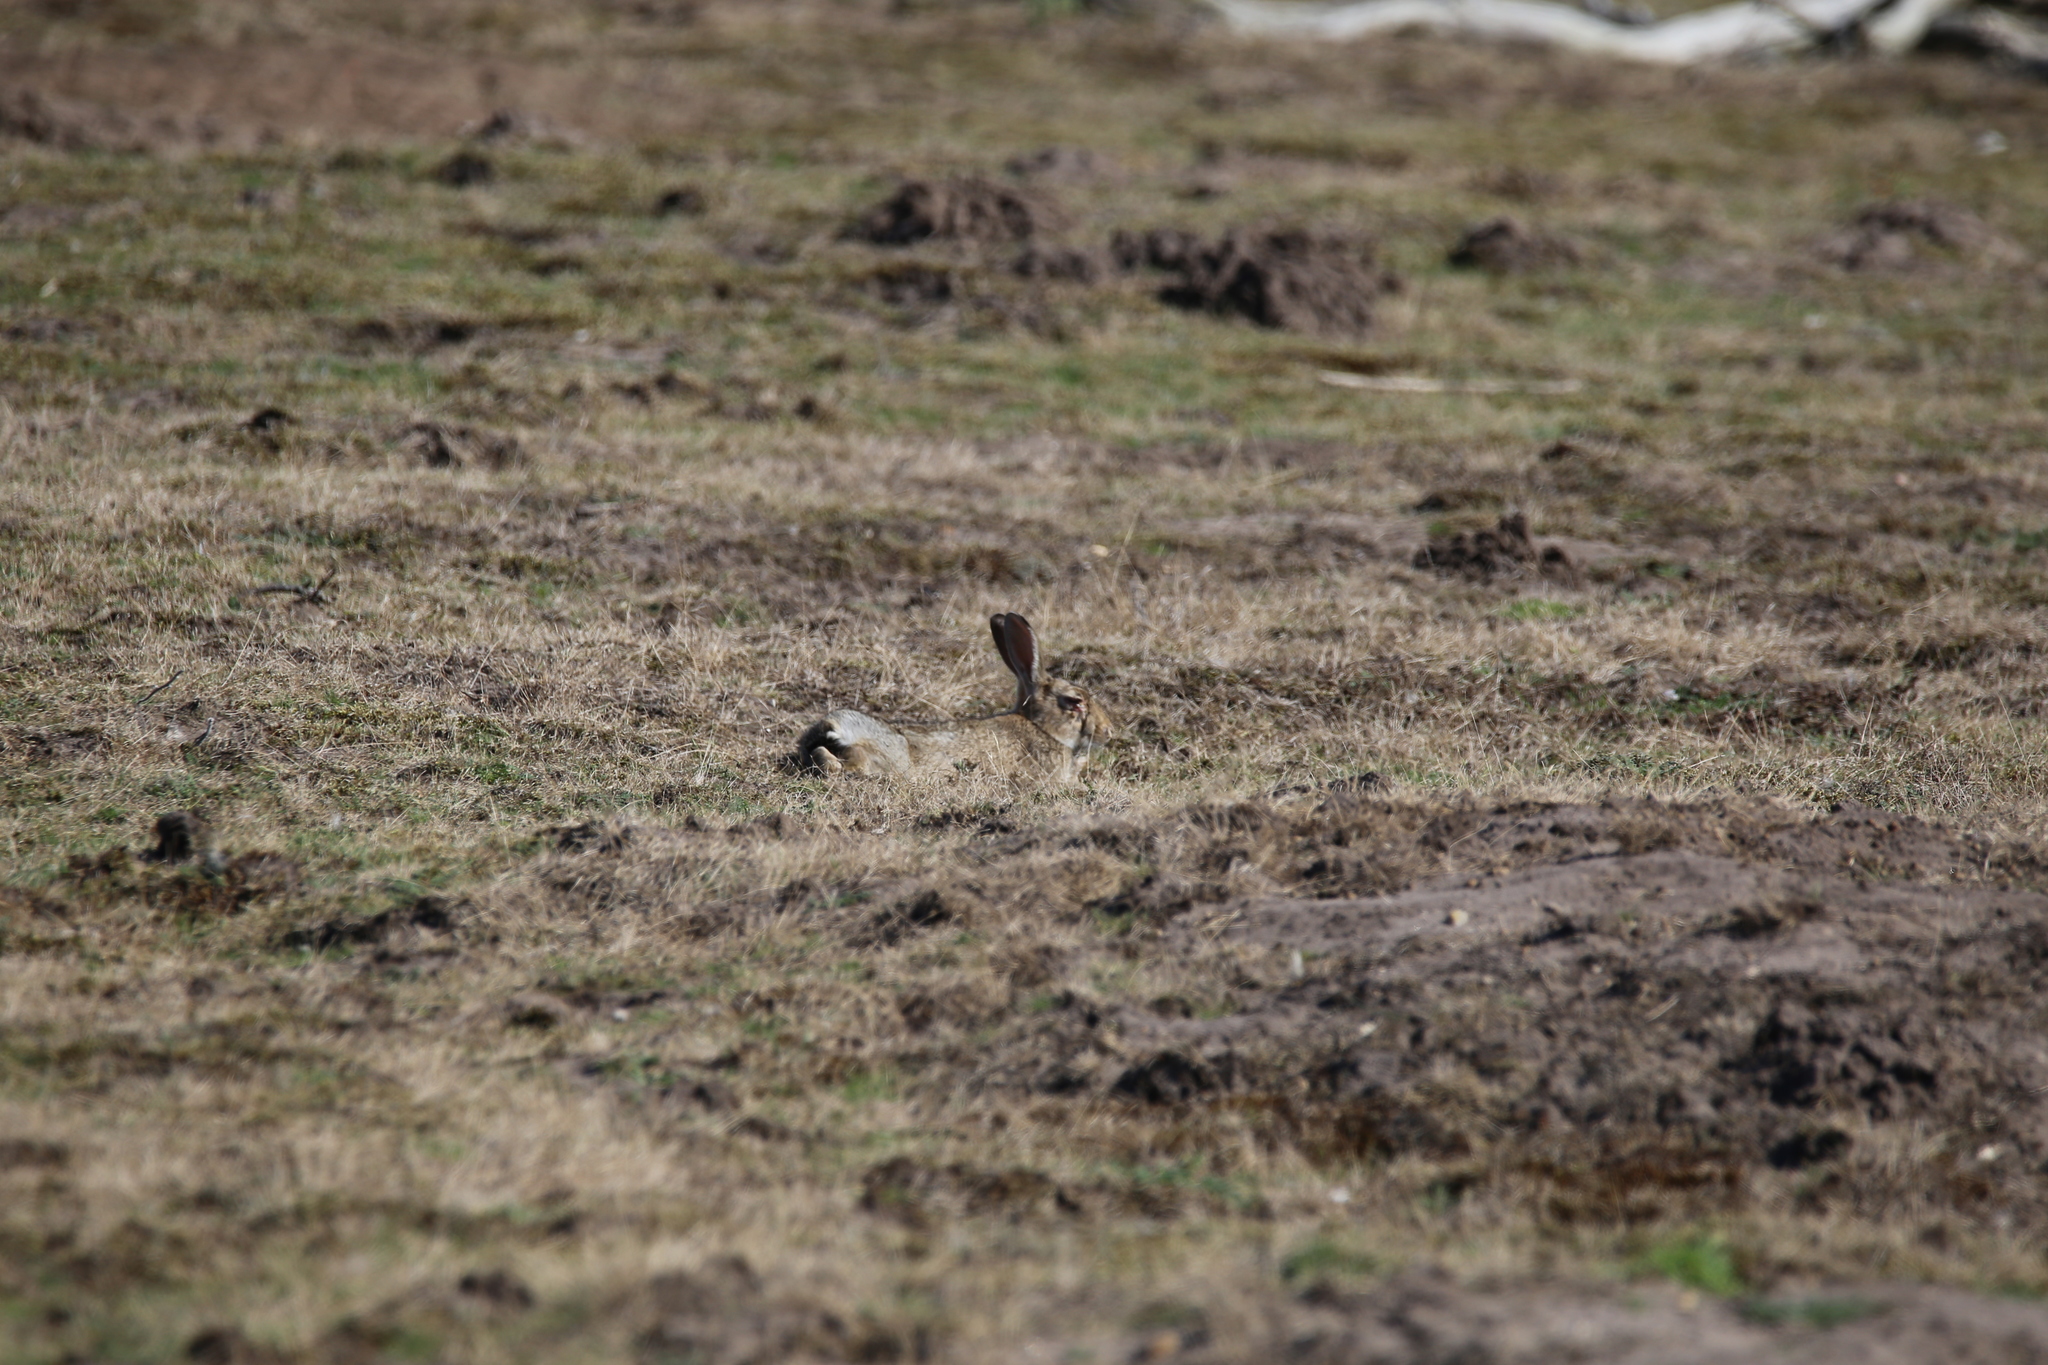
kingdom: Animalia
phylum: Chordata
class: Mammalia
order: Lagomorpha
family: Leporidae
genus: Oryctolagus
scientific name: Oryctolagus cuniculus
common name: European rabbit
